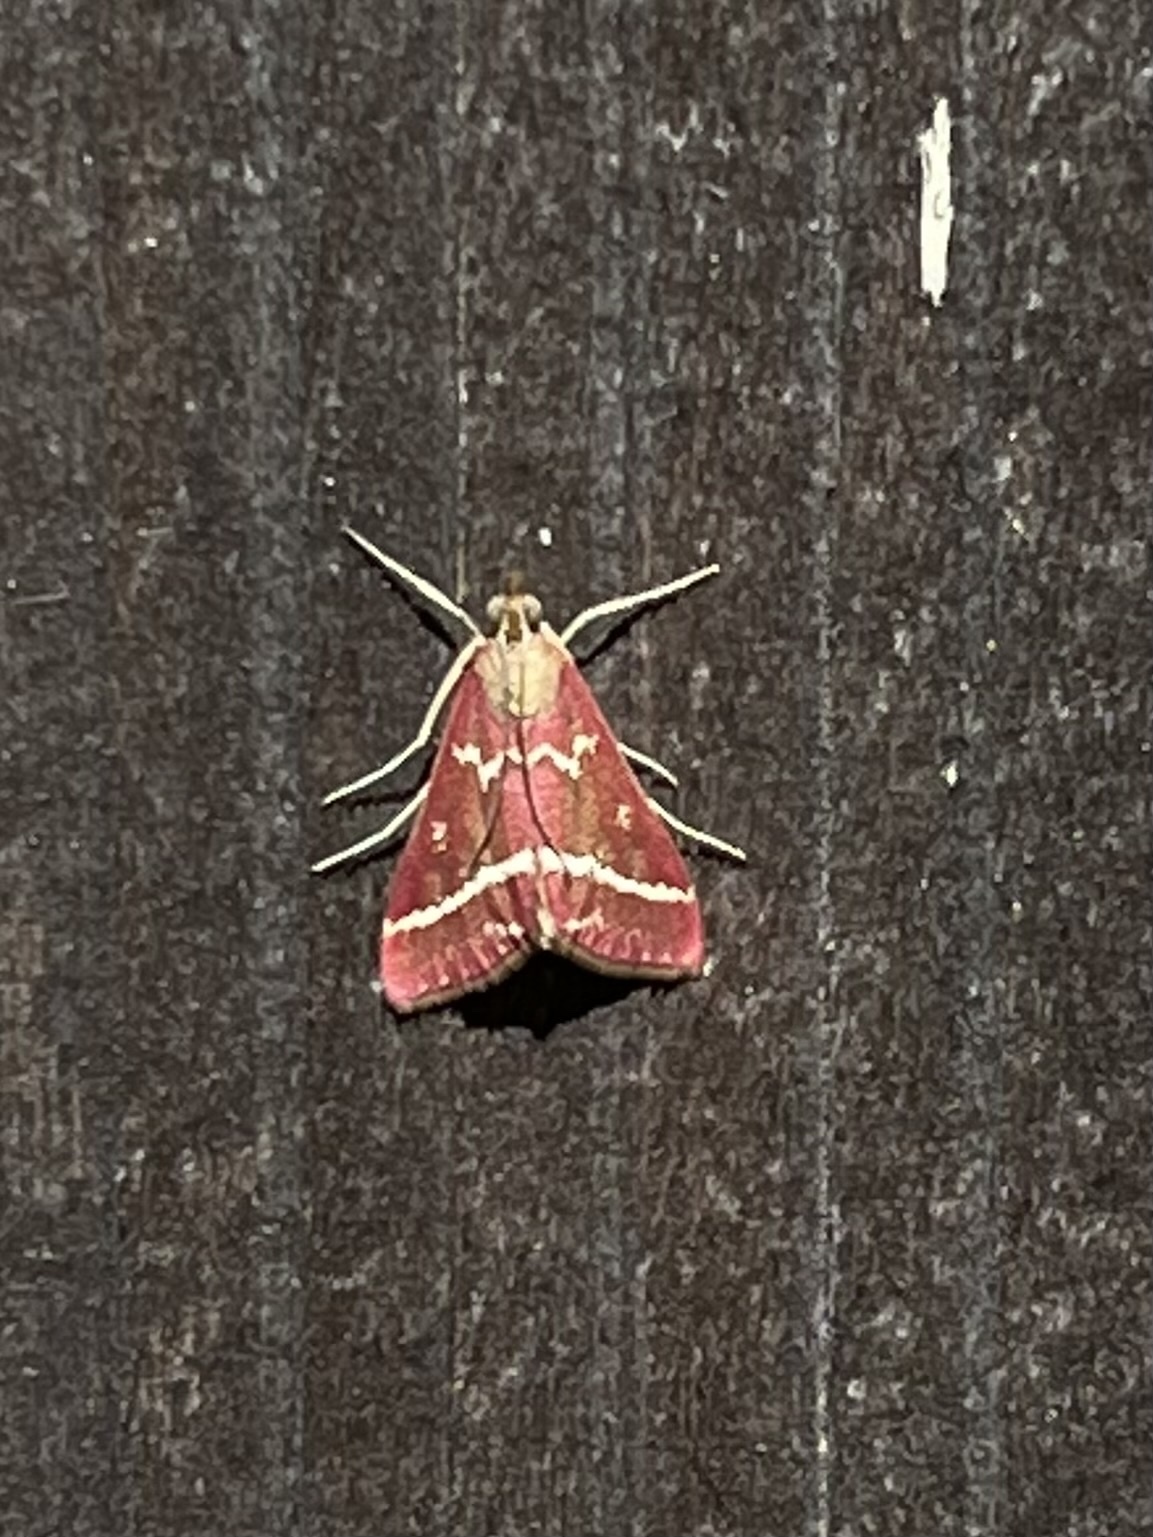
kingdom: Animalia
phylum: Arthropoda
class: Insecta
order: Lepidoptera
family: Crambidae
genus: Pyrausta
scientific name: Pyrausta volupialis
